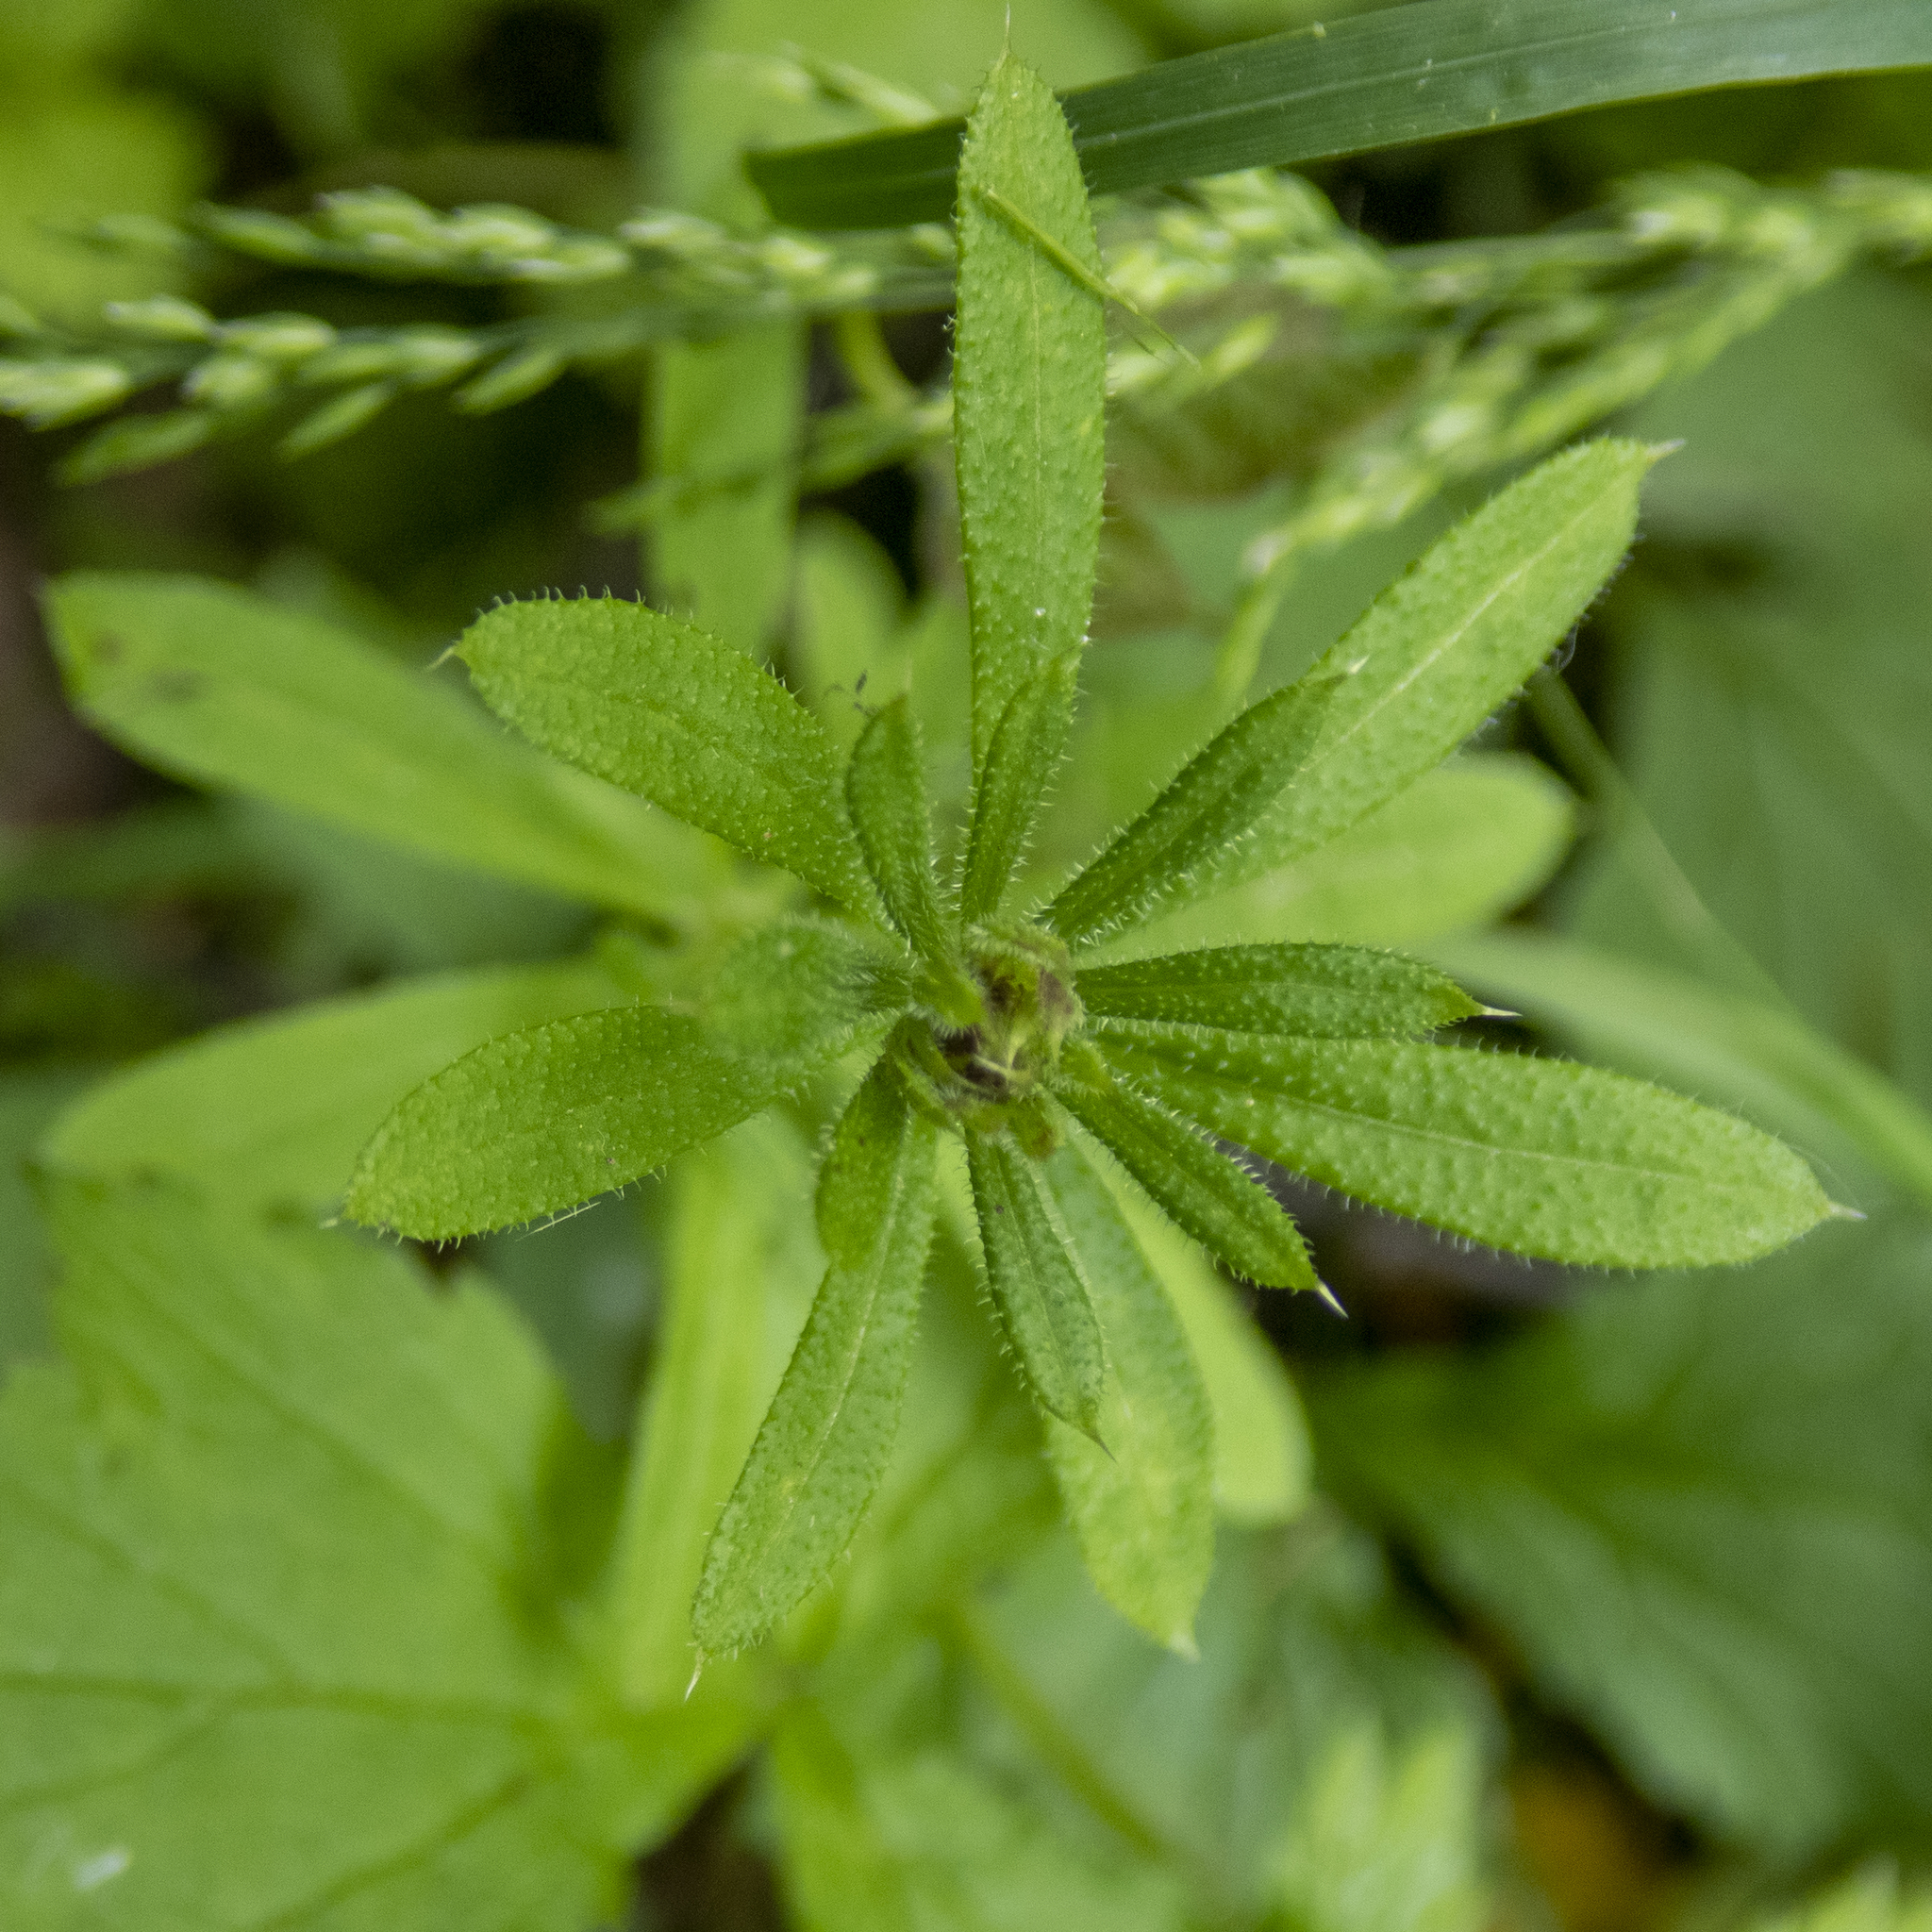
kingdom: Plantae
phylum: Tracheophyta
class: Magnoliopsida
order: Gentianales
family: Rubiaceae
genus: Galium
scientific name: Galium aparine
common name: Cleavers
